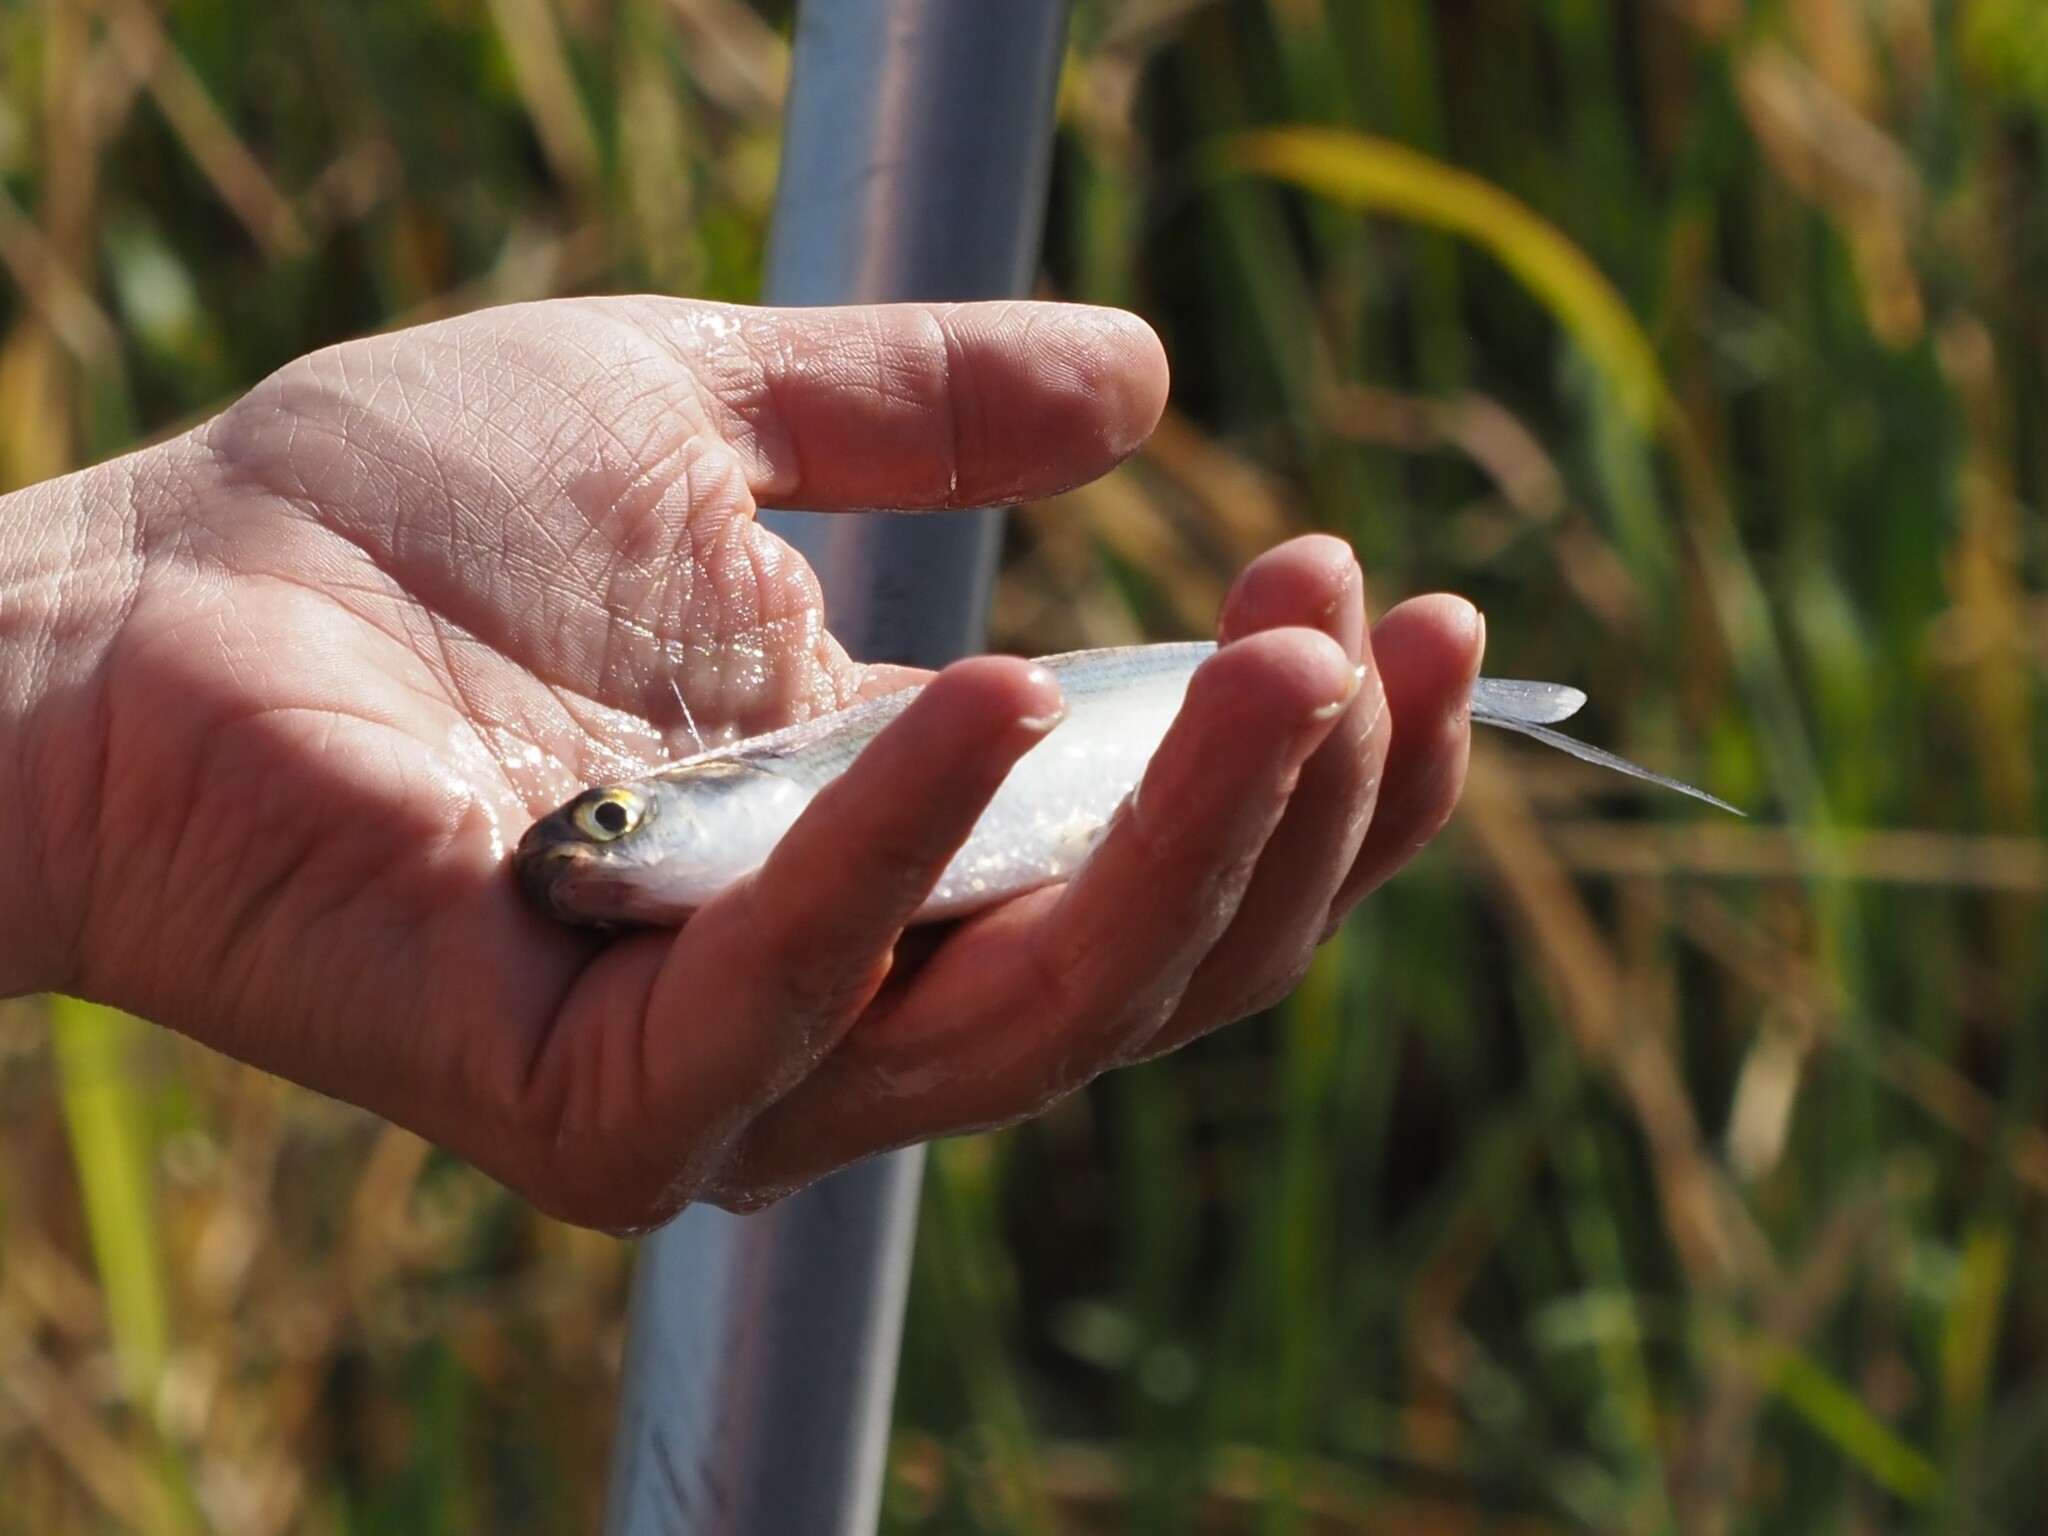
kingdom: Animalia
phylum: Chordata
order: Clupeiformes
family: Clupeidae
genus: Dorosoma
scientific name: Dorosoma cepedianum
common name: Gizzard shad
